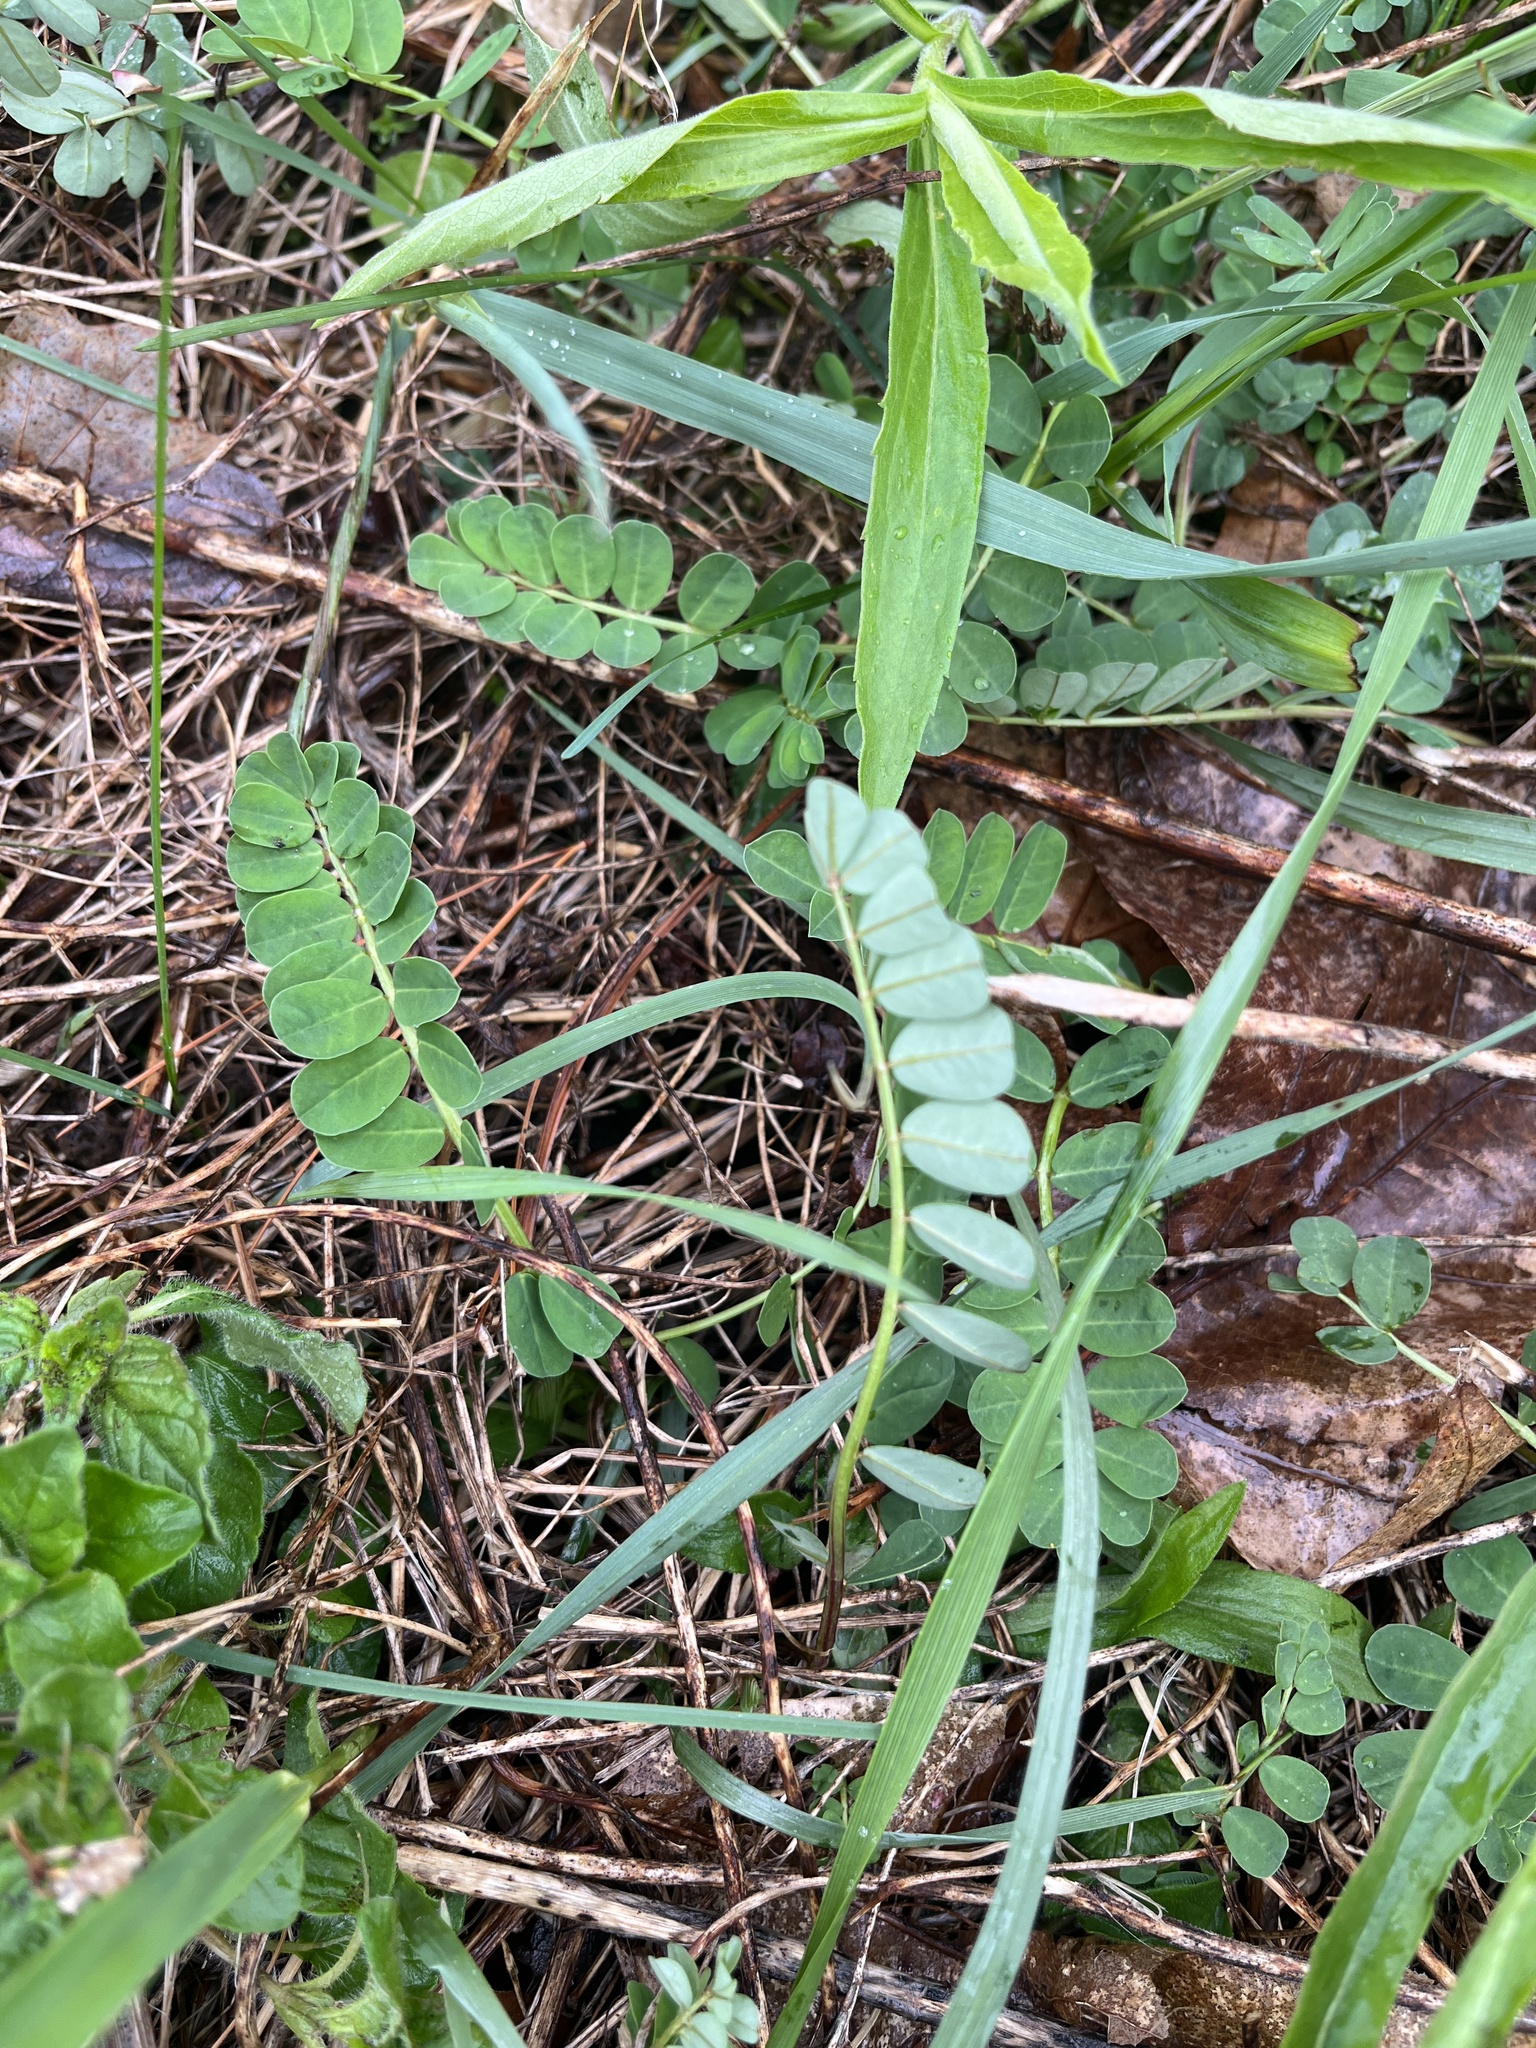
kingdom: Plantae
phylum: Tracheophyta
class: Magnoliopsida
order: Fabales
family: Fabaceae
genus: Coronilla
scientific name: Coronilla varia
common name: Crownvetch
